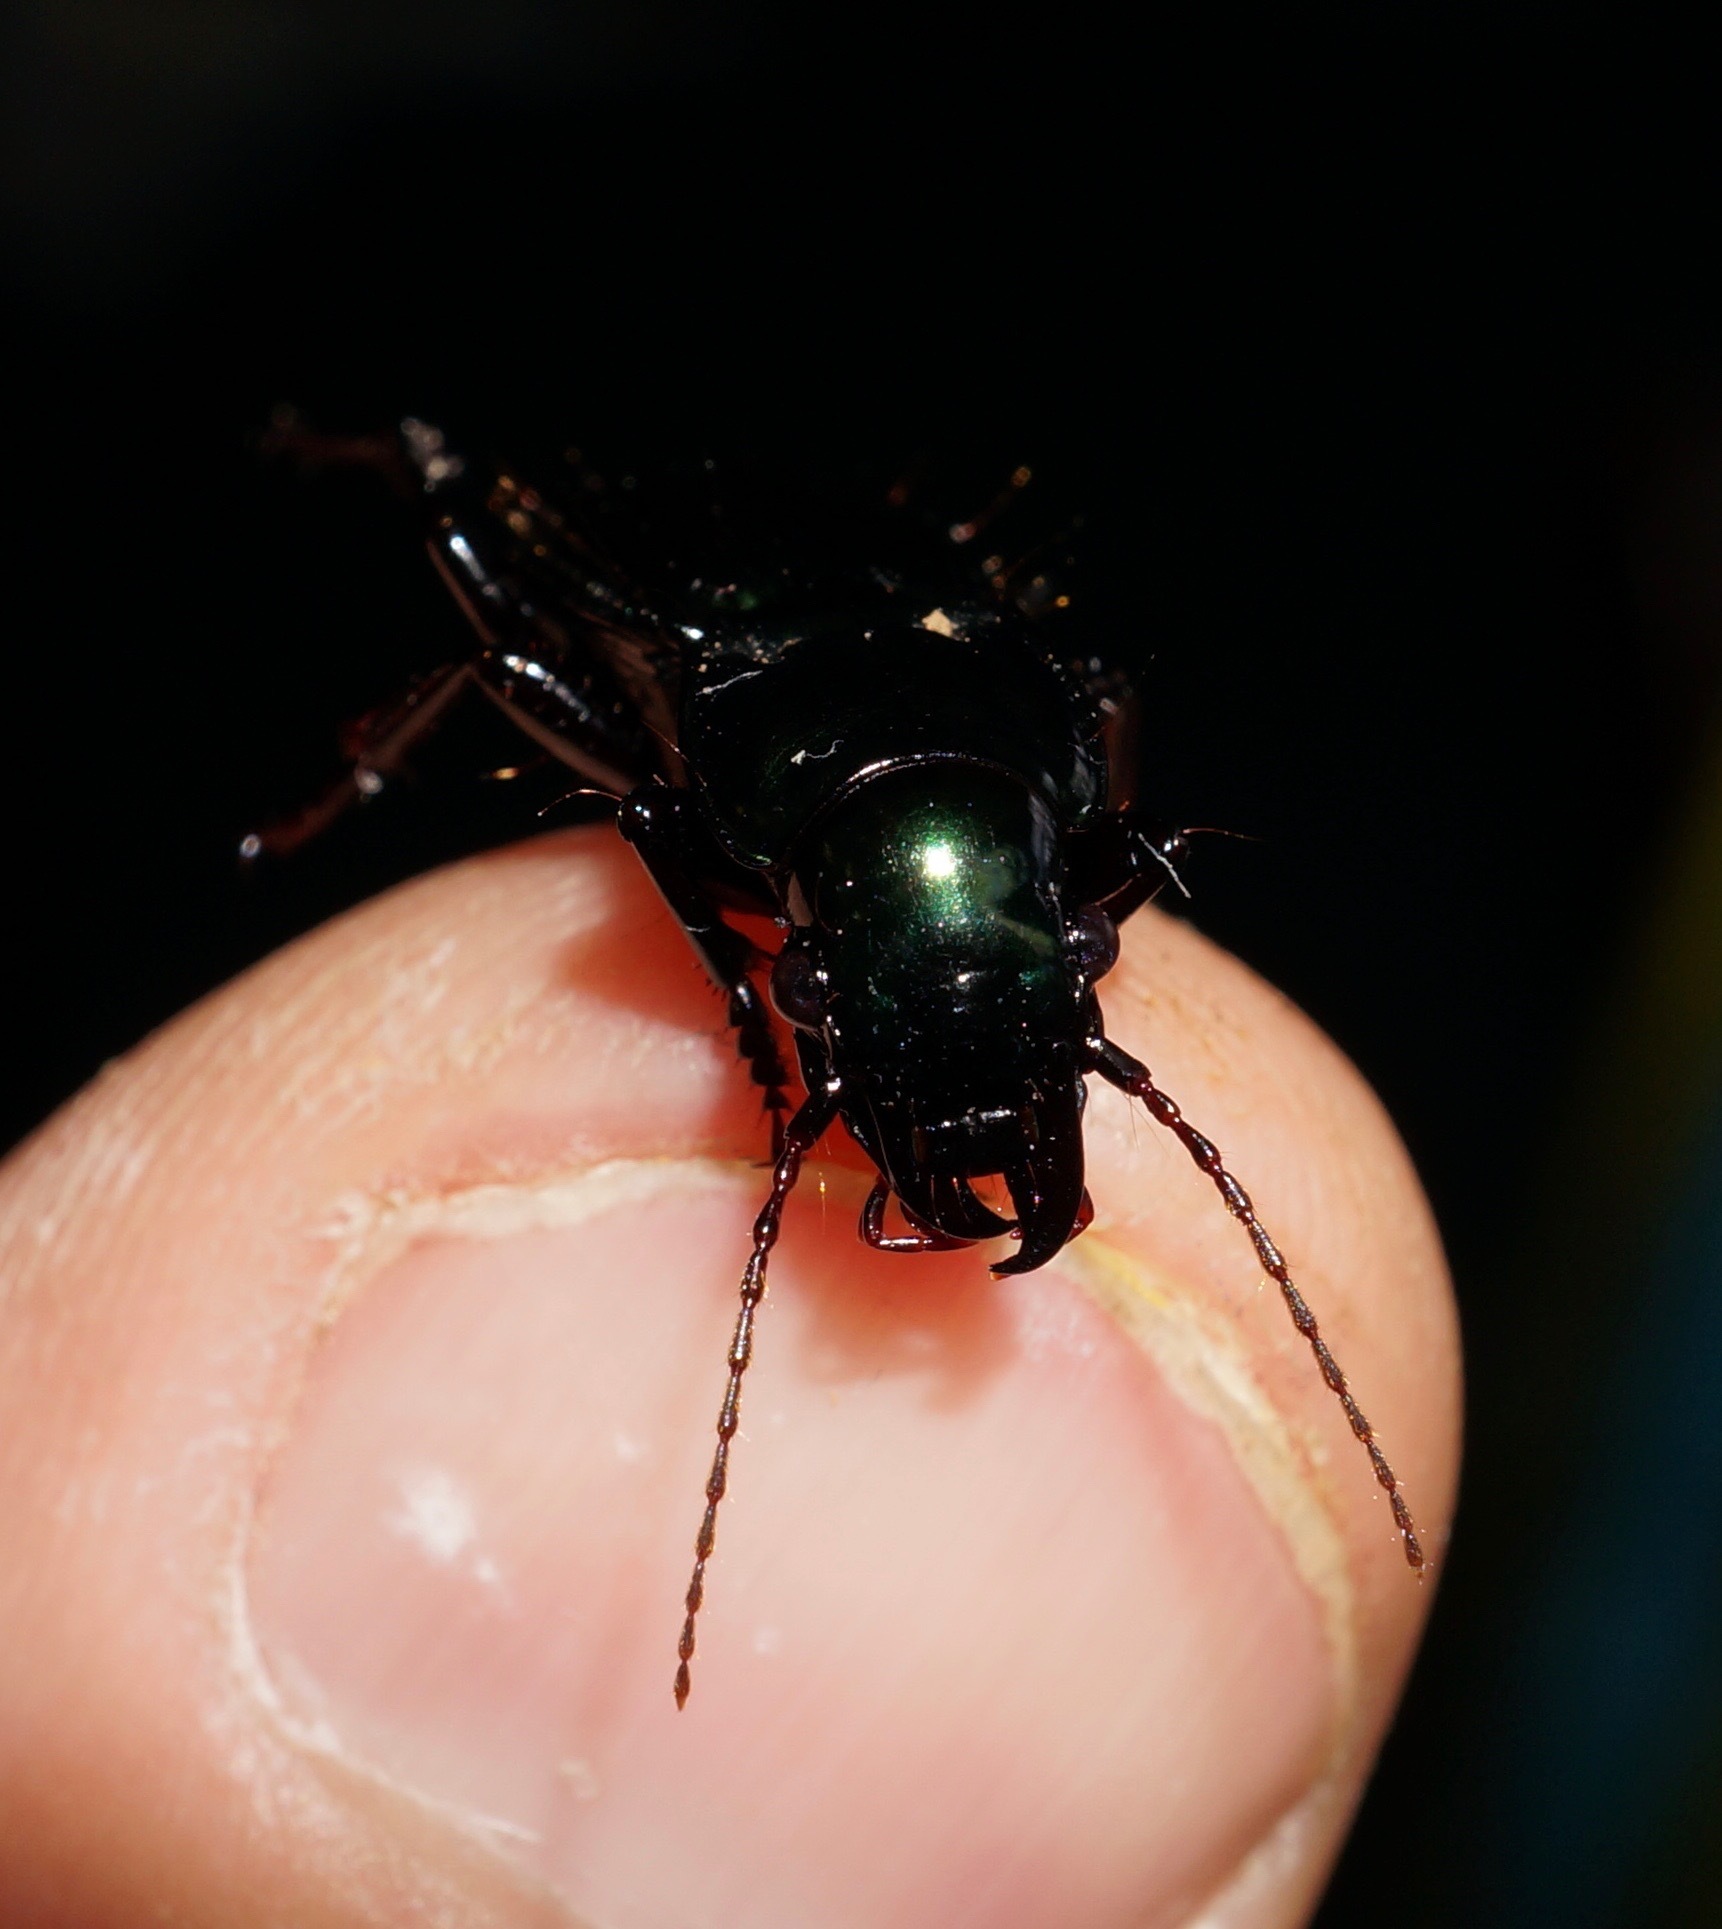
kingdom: Animalia
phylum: Arthropoda
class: Insecta
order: Coleoptera
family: Carabidae
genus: Megadromus
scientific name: Megadromus capito
